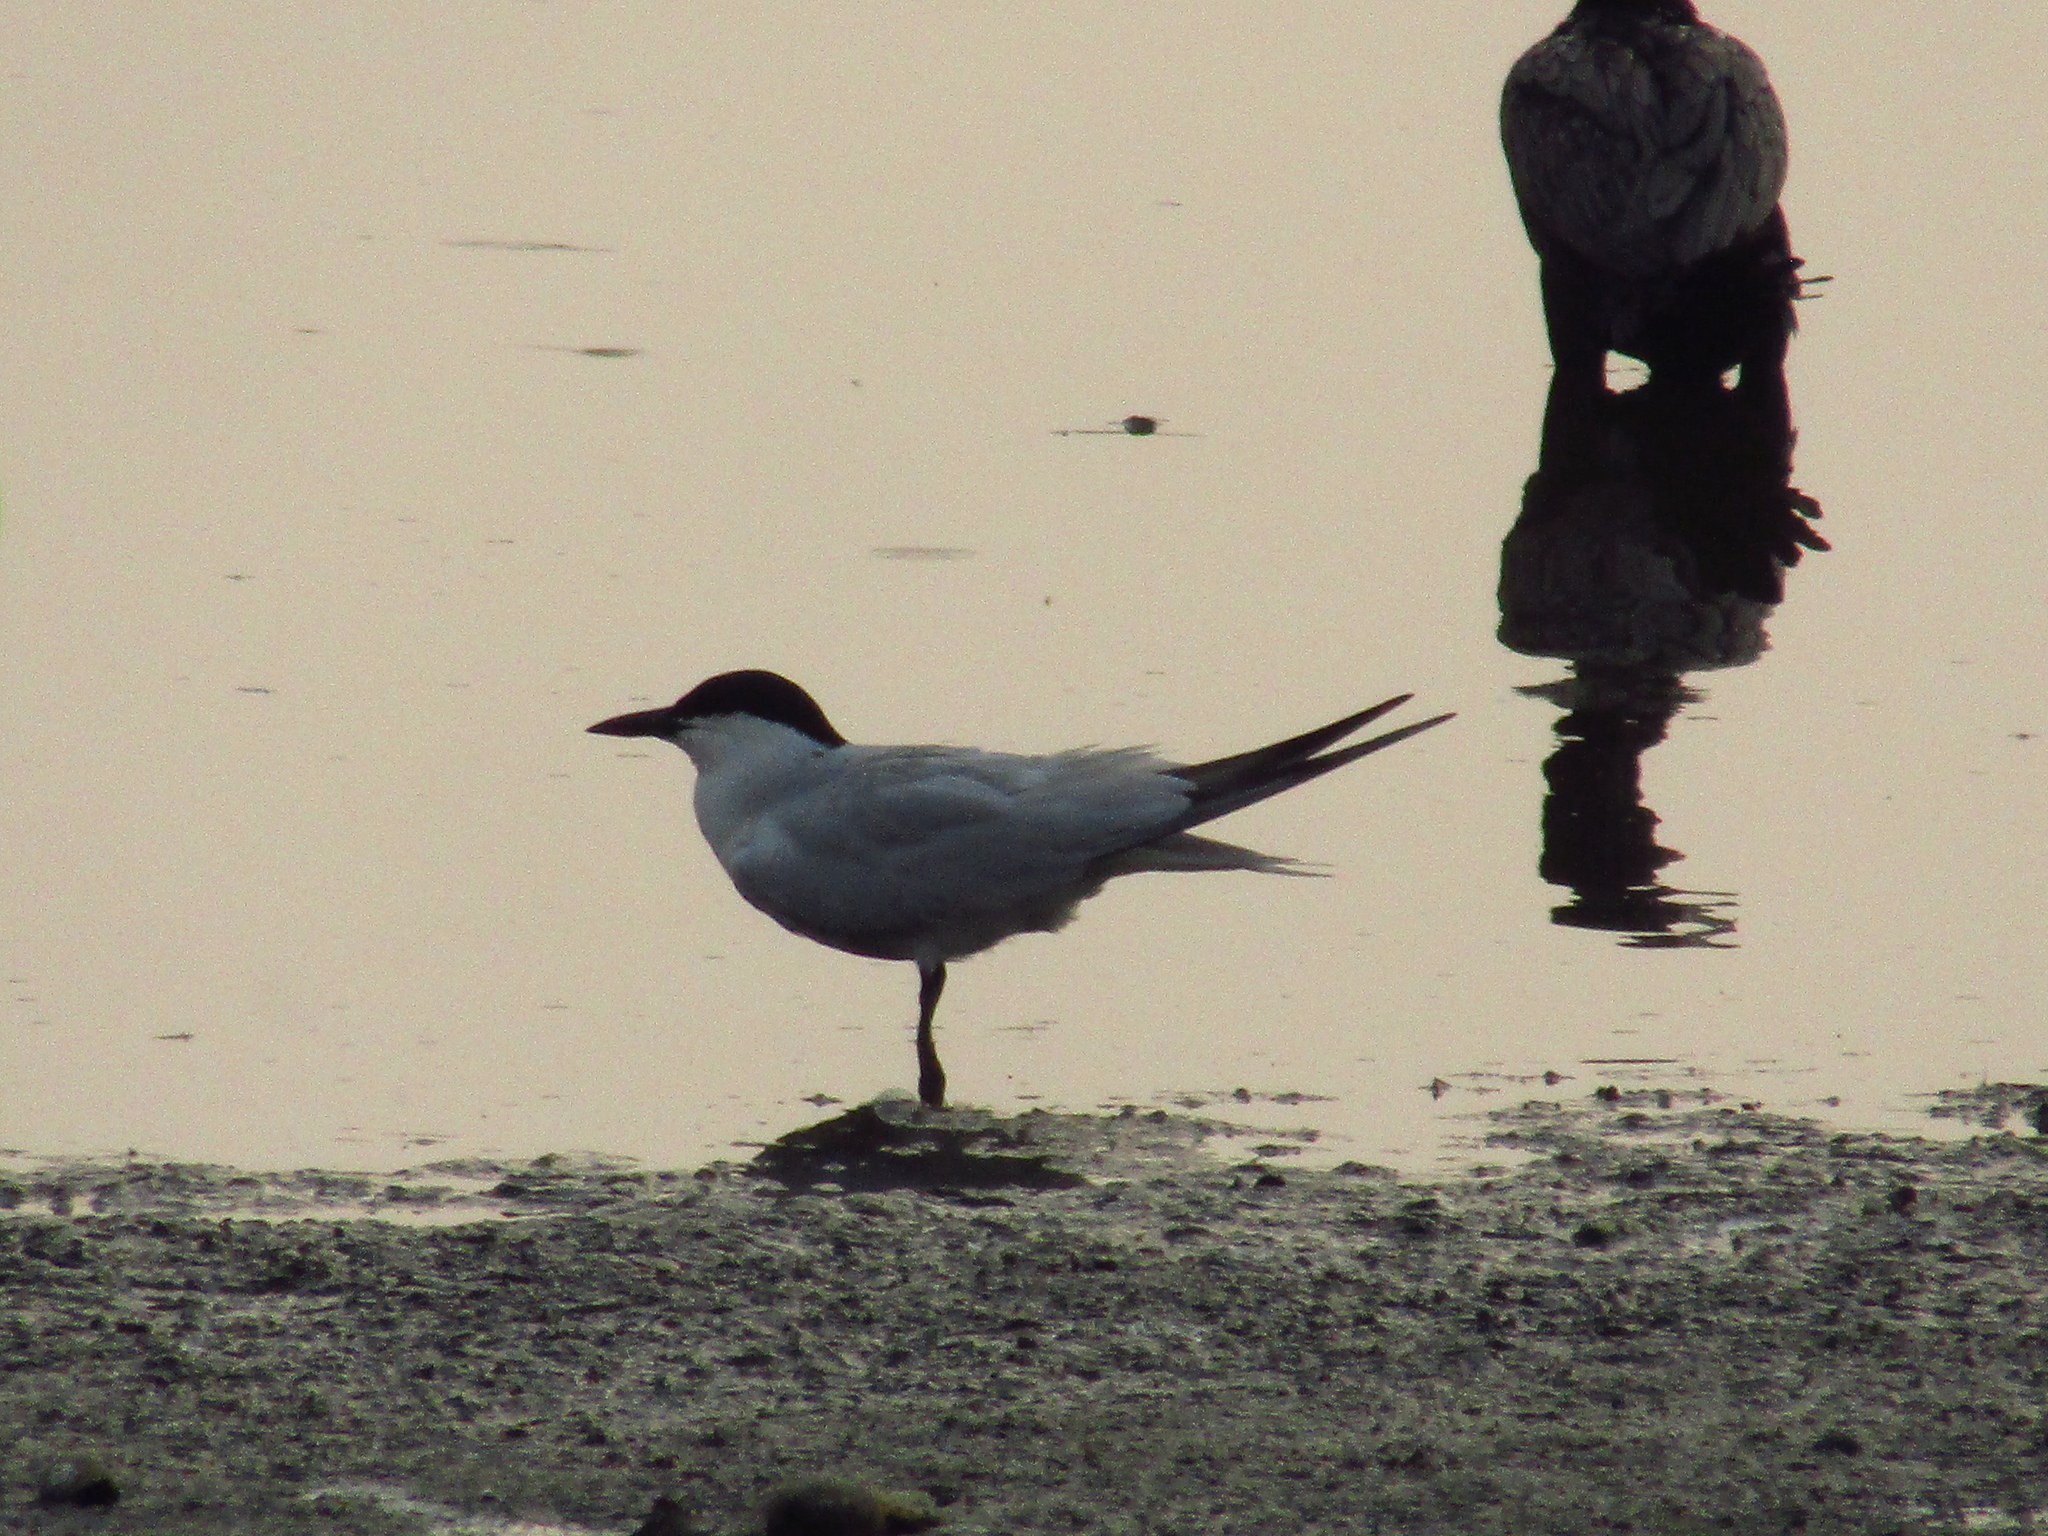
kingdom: Animalia
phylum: Chordata
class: Aves
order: Charadriiformes
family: Laridae
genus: Gelochelidon
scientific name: Gelochelidon nilotica
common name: Gull-billed tern
